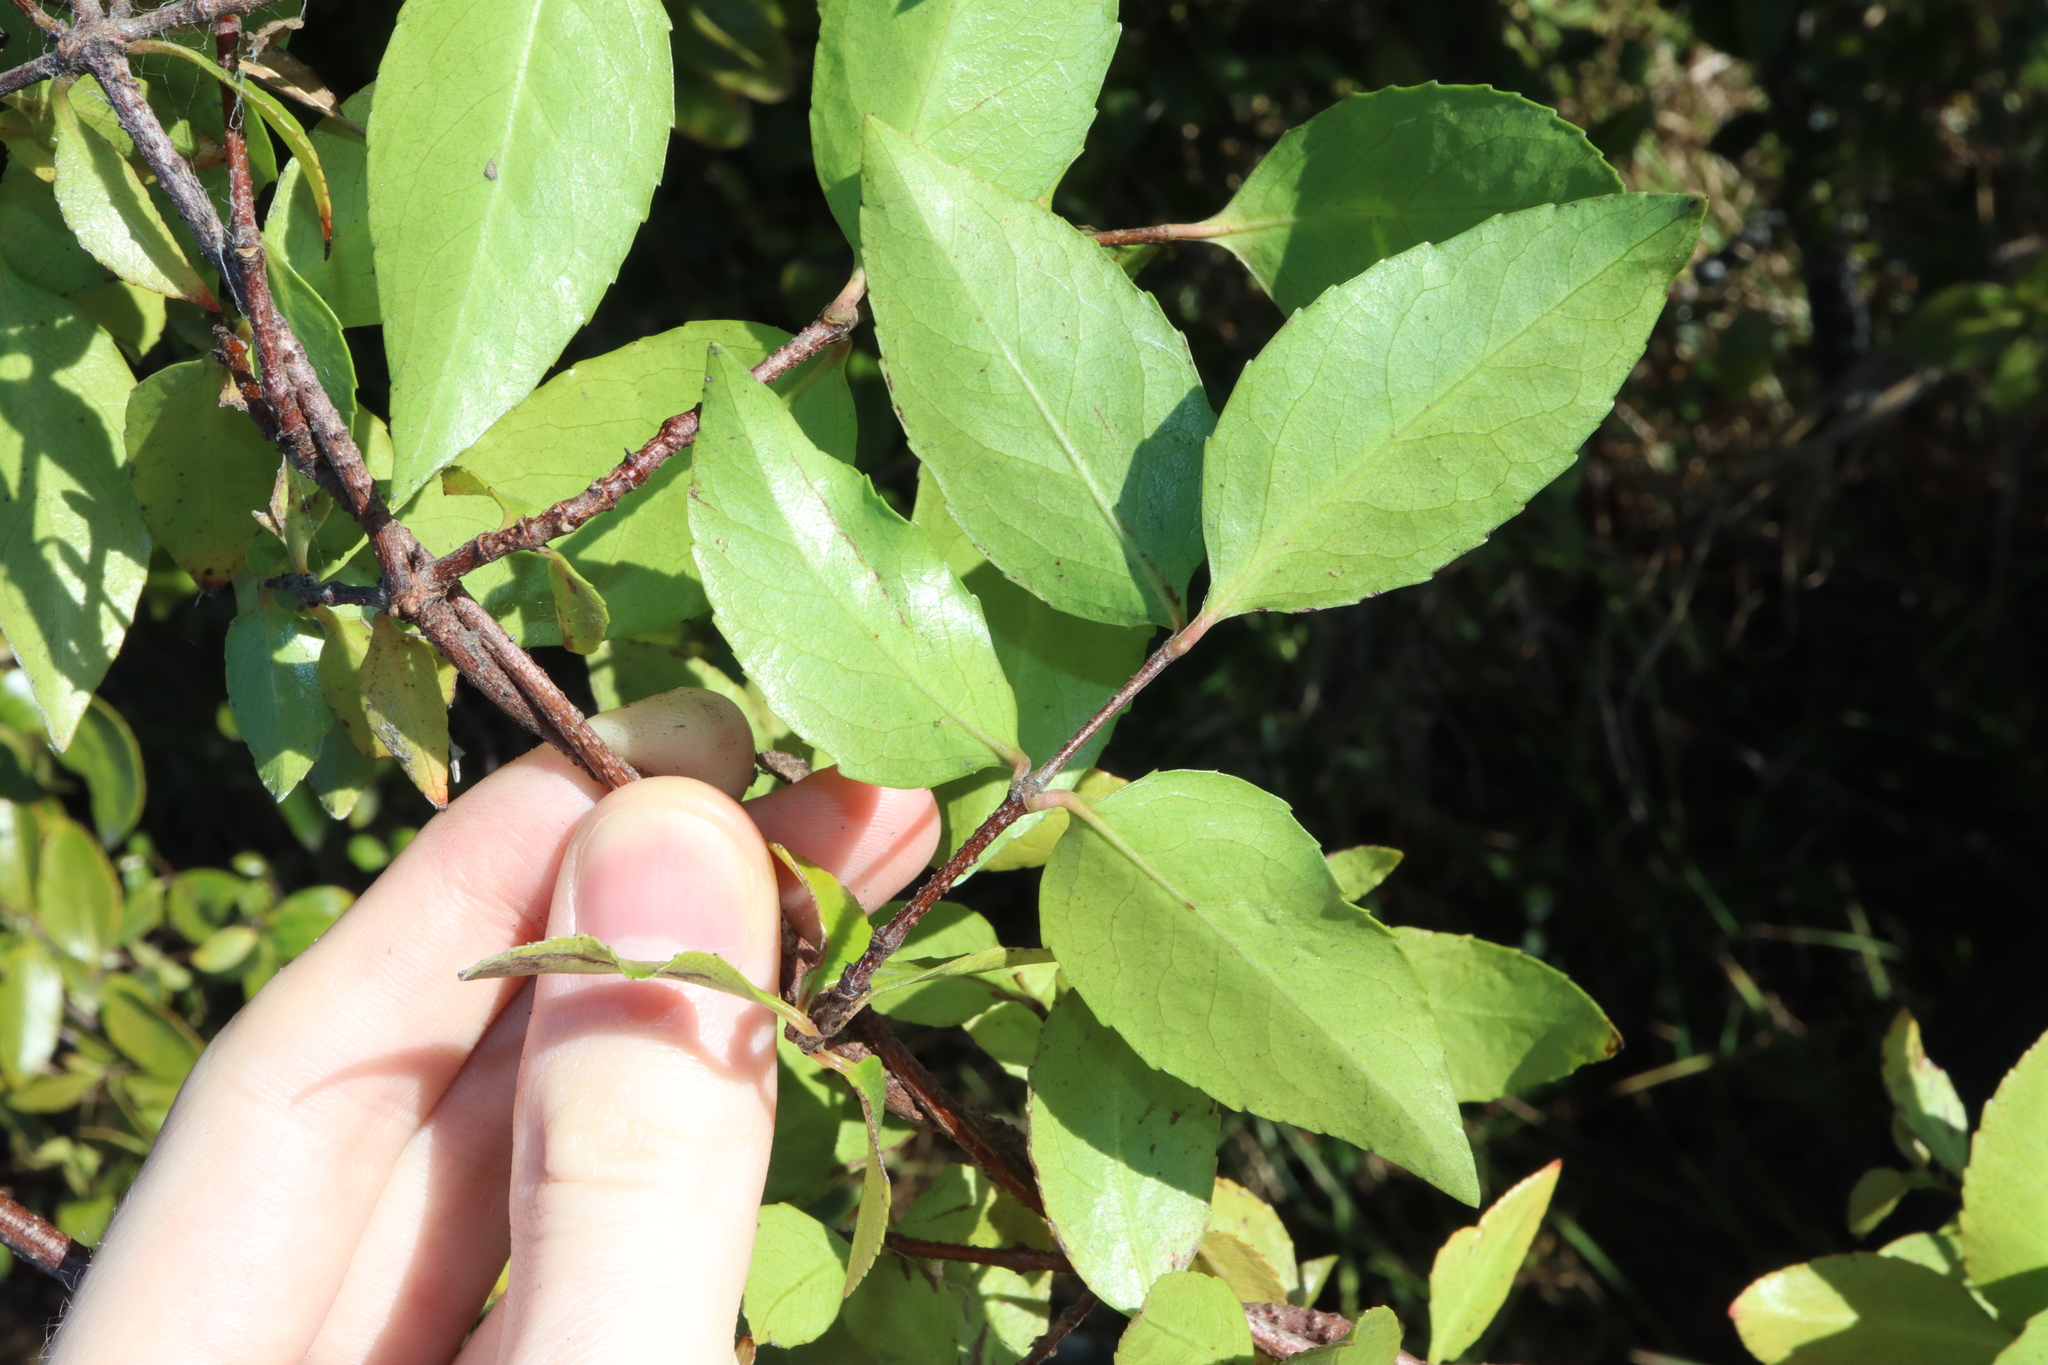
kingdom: Plantae
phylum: Tracheophyta
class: Magnoliopsida
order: Saxifragales
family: Aphanopetalaceae
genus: Aphanopetalum
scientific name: Aphanopetalum resinosum
